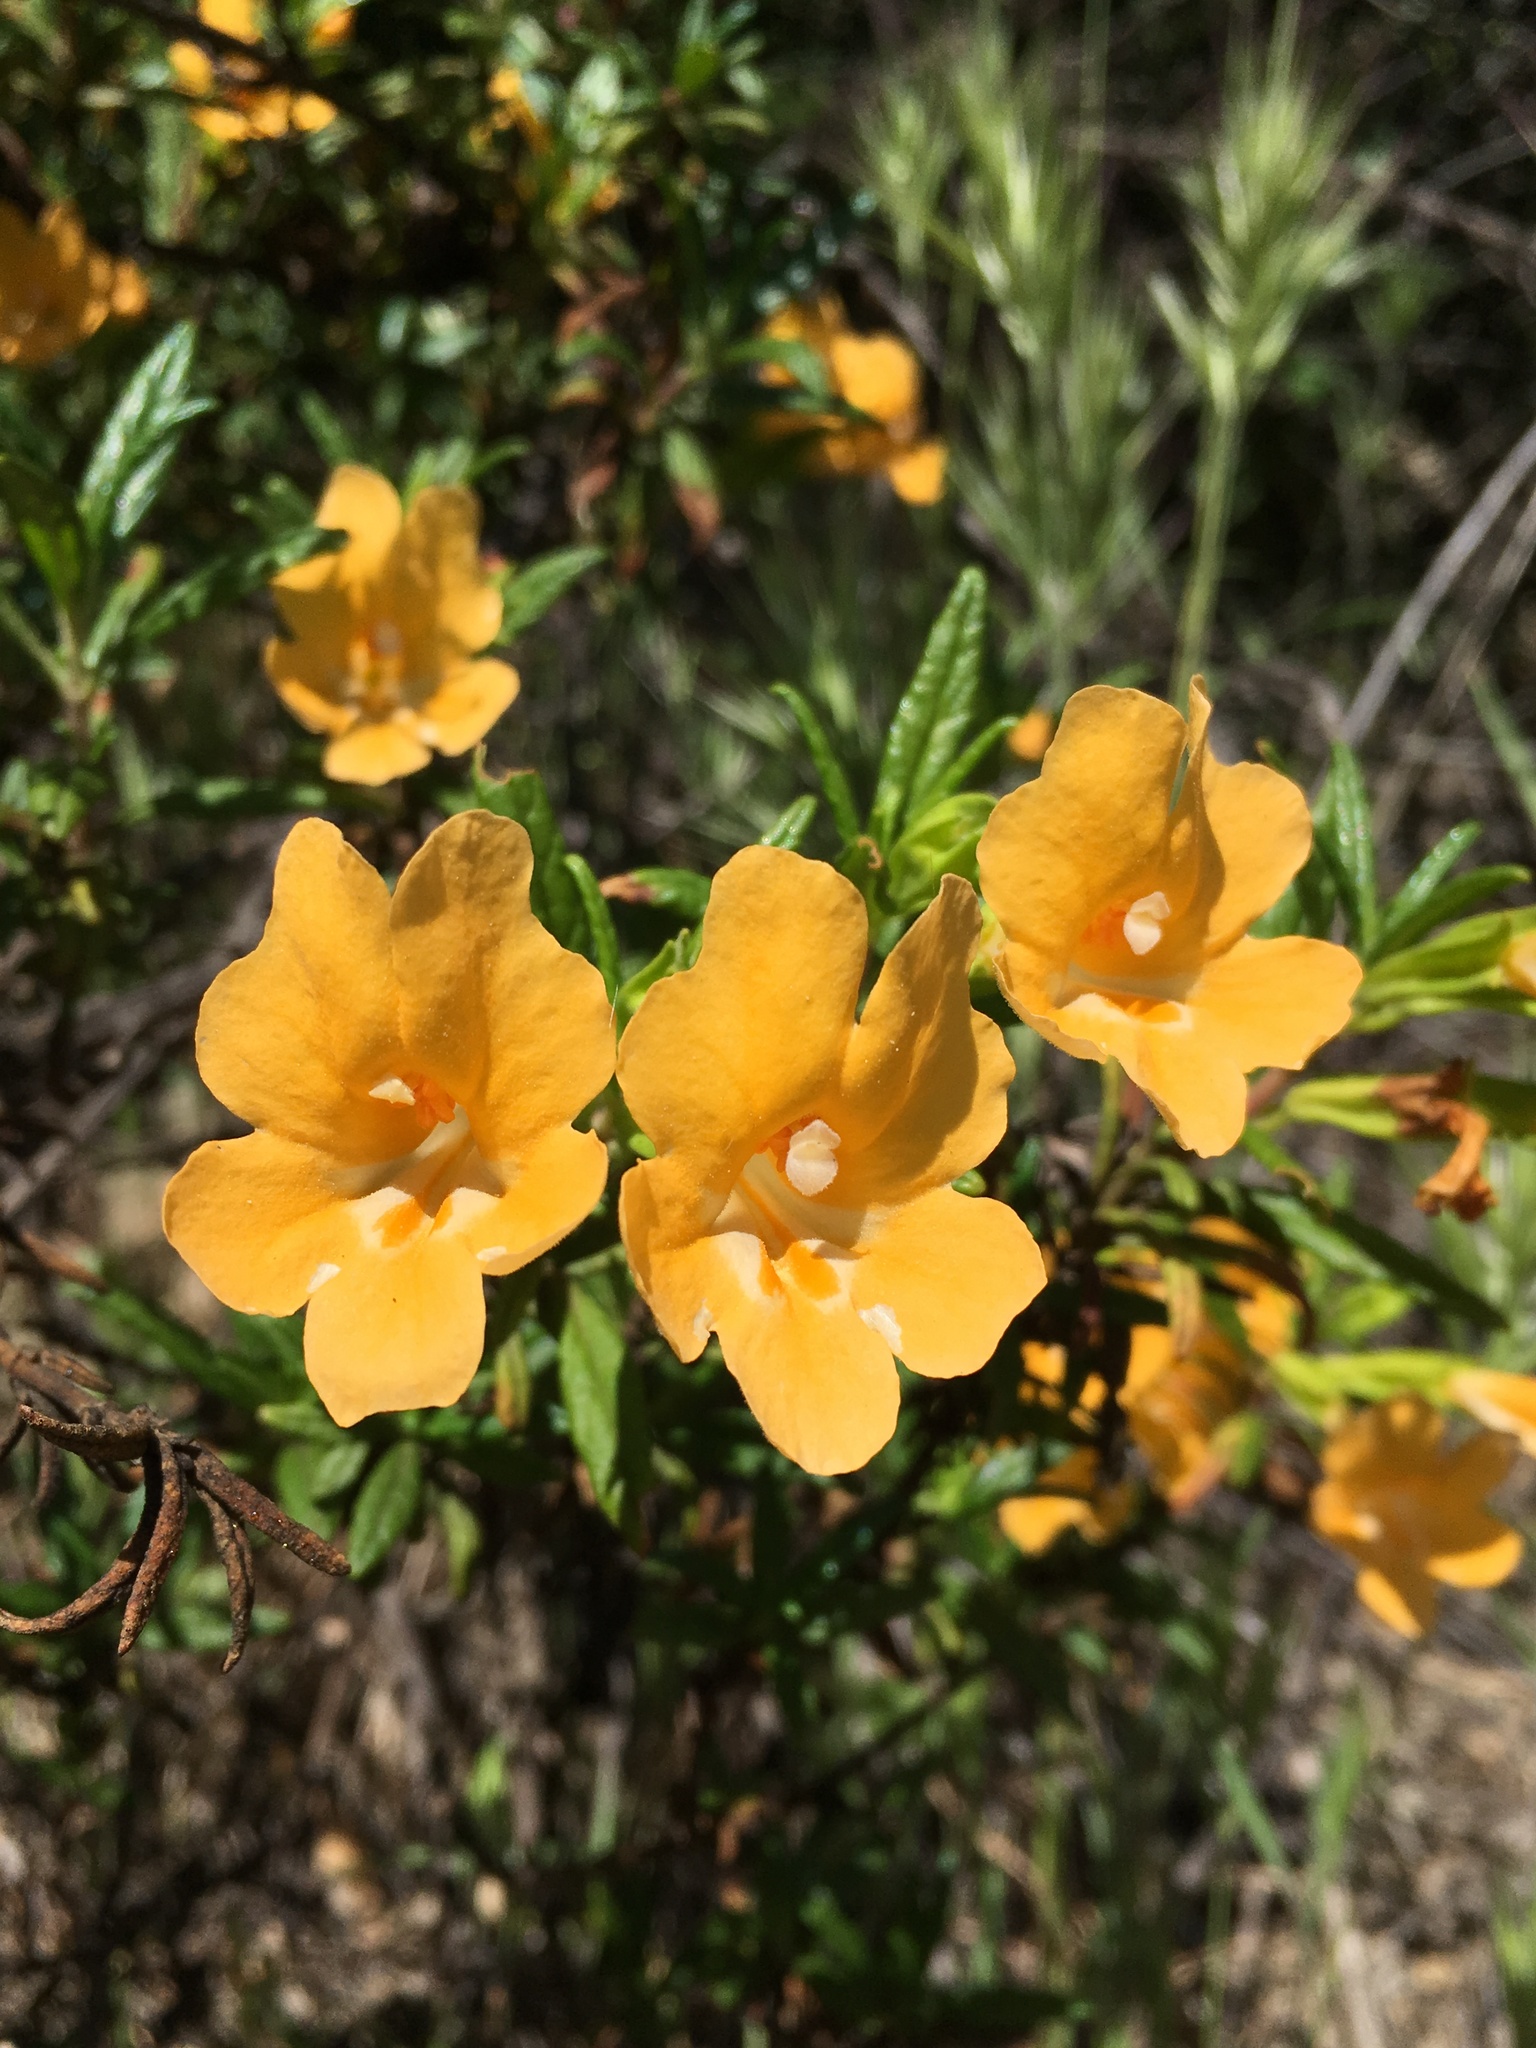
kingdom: Plantae
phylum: Tracheophyta
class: Magnoliopsida
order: Lamiales
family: Phrymaceae
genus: Diplacus
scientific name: Diplacus aurantiacus
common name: Bush monkey-flower
